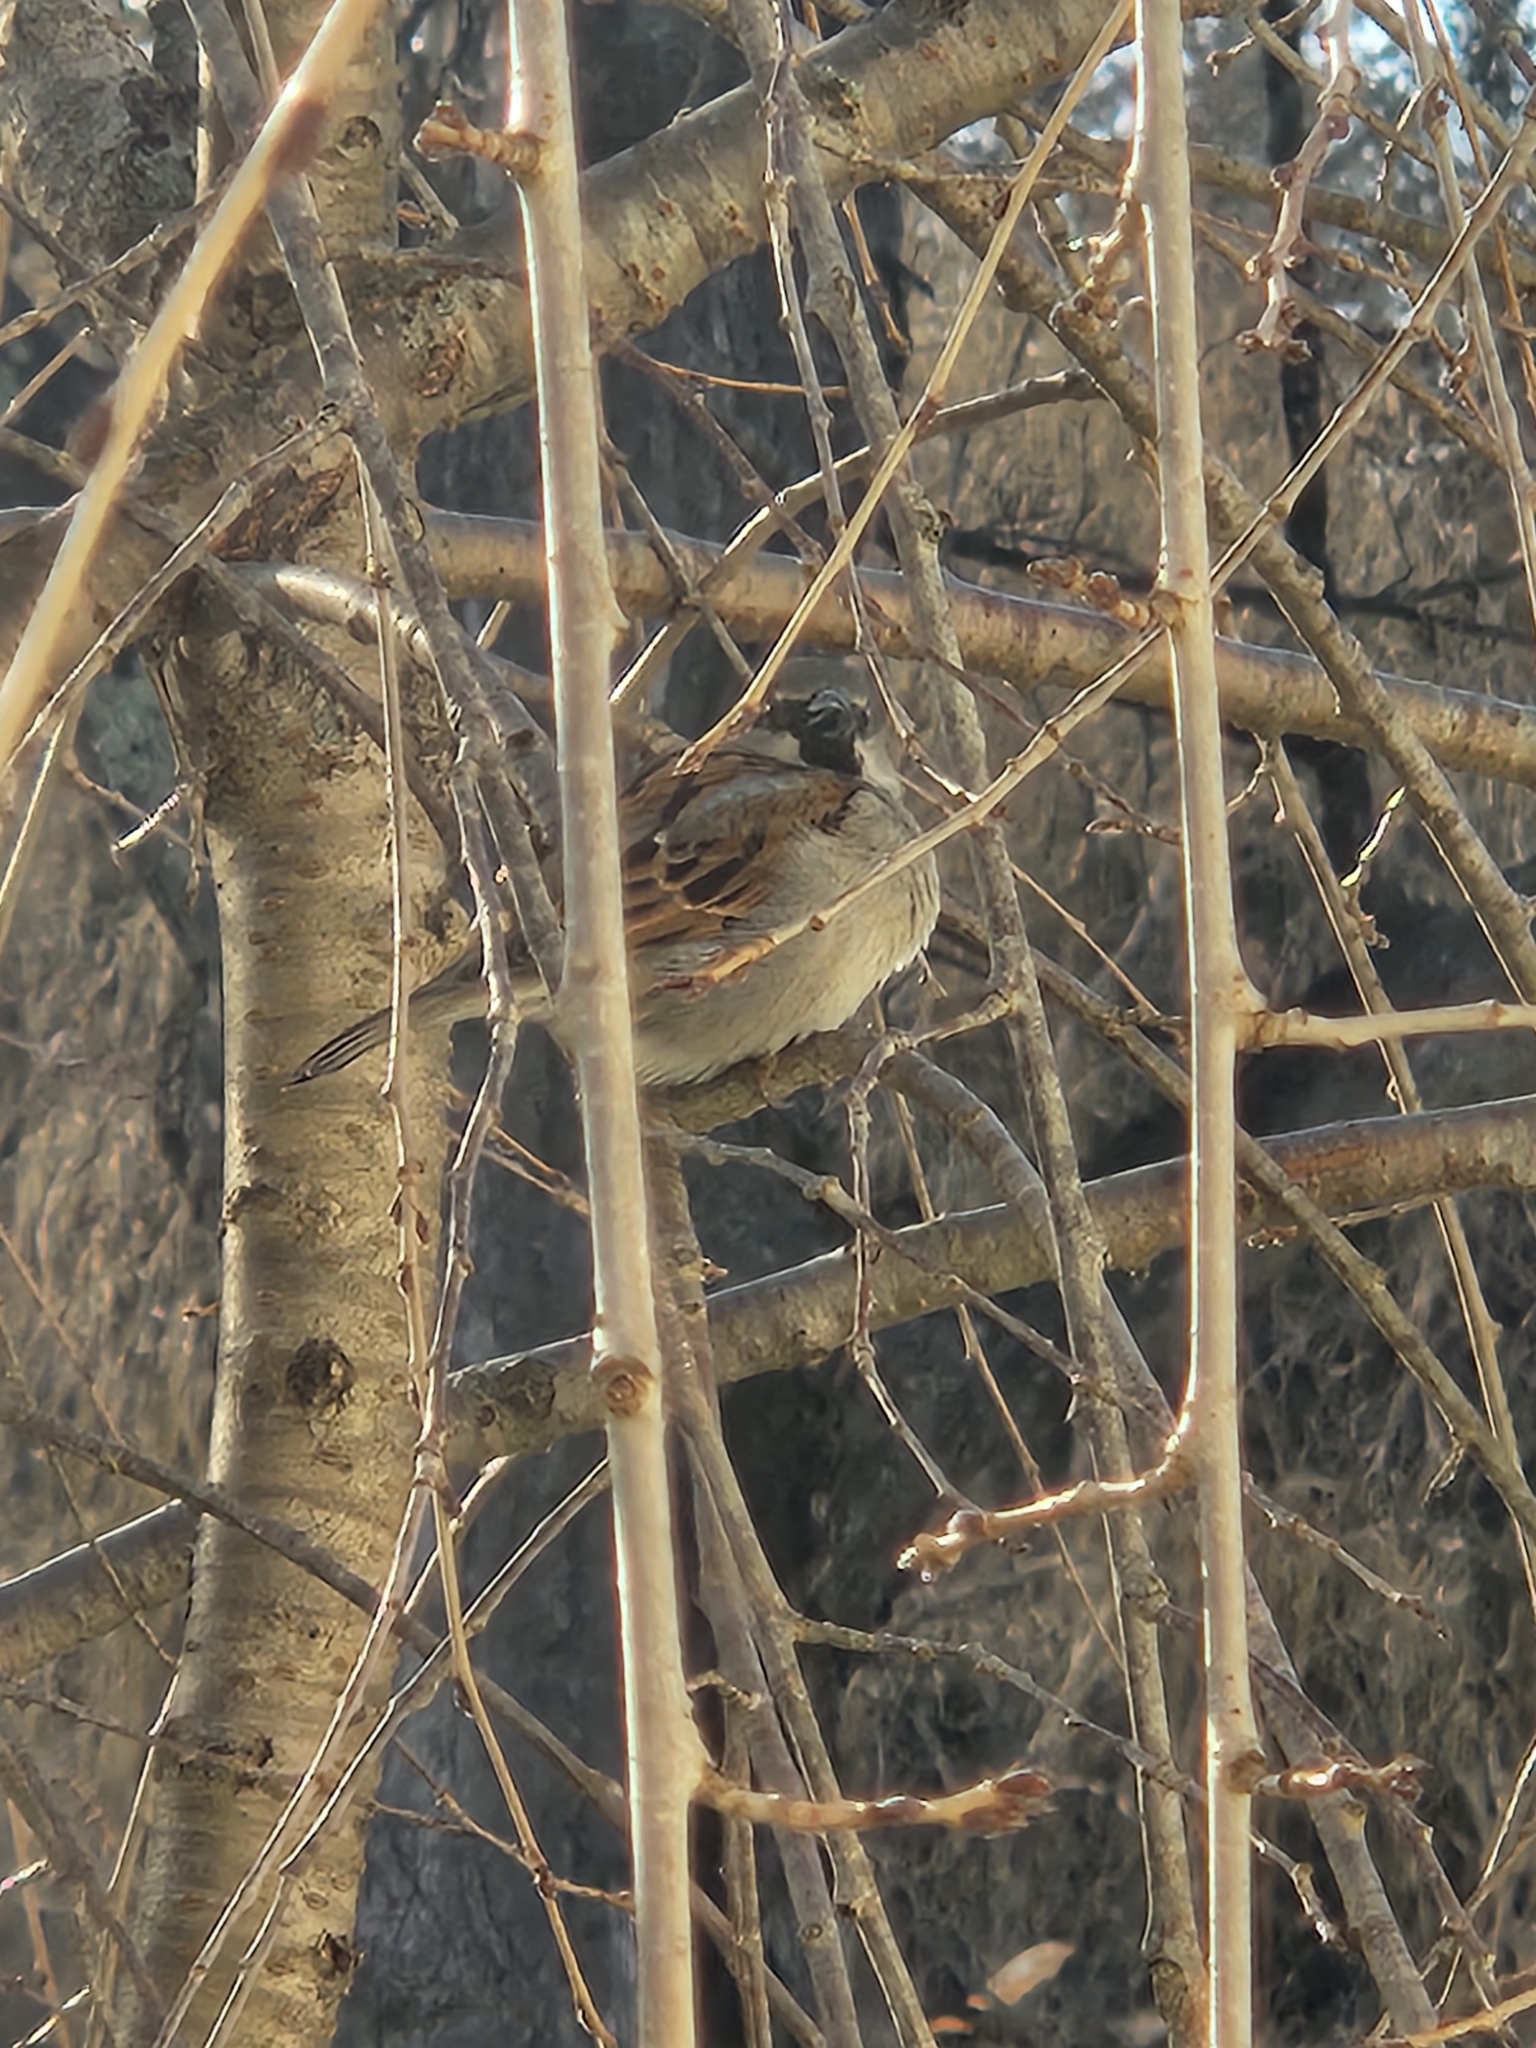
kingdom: Animalia
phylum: Chordata
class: Aves
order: Passeriformes
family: Passeridae
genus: Passer
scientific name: Passer domesticus
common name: House sparrow
